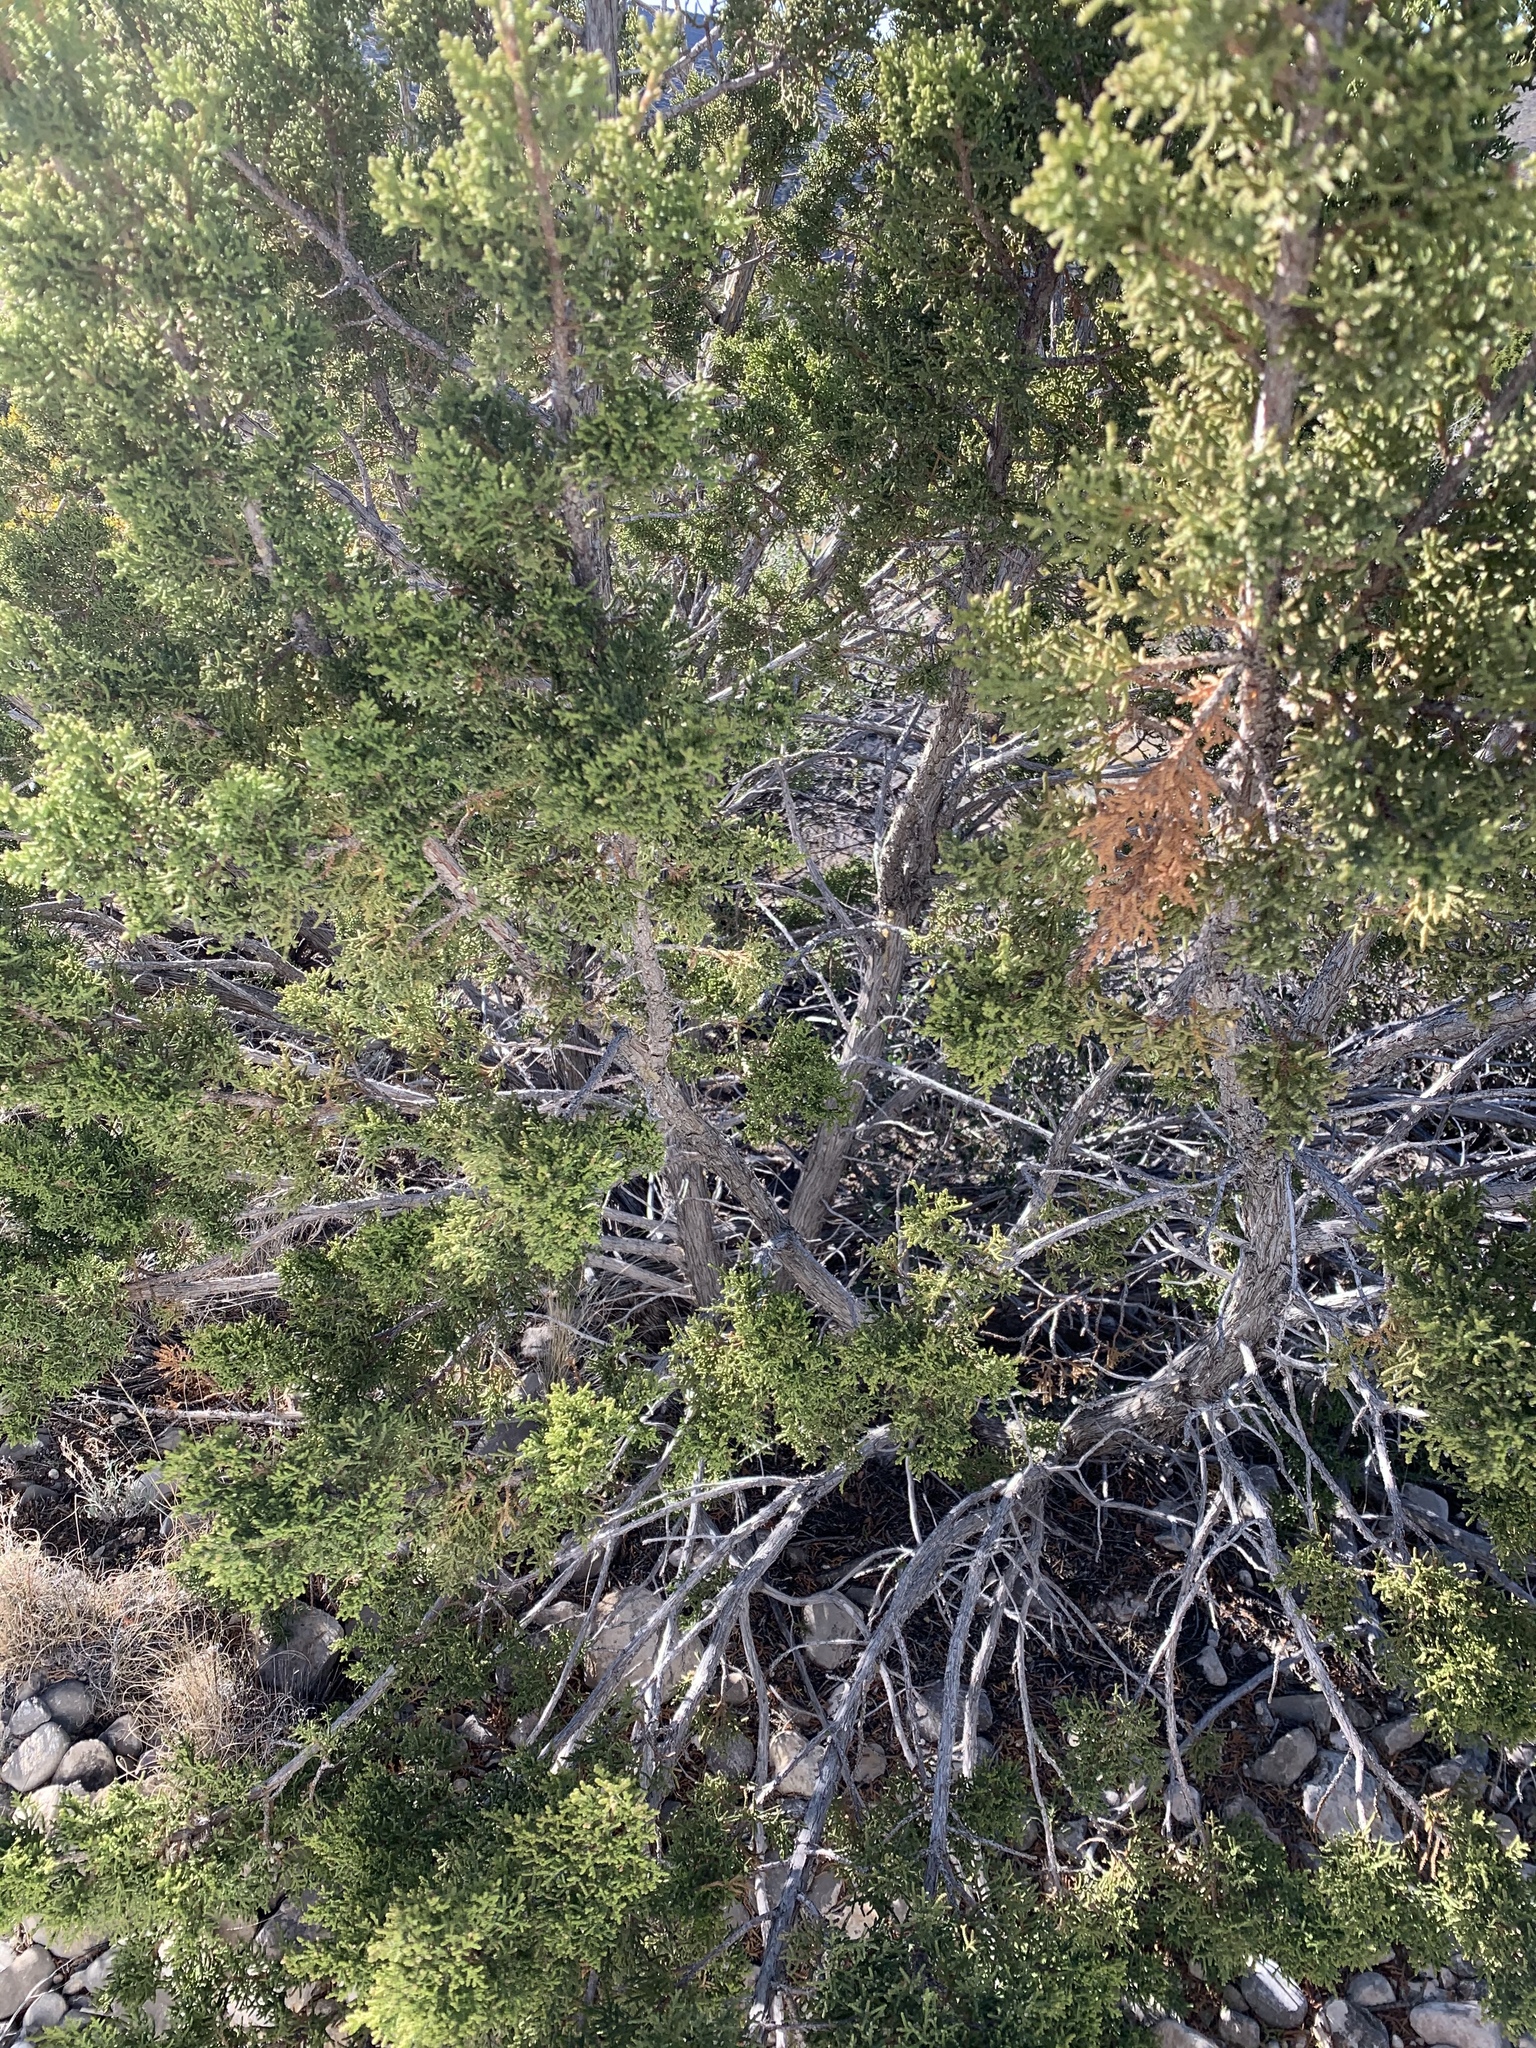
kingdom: Plantae
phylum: Tracheophyta
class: Pinopsida
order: Pinales
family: Cupressaceae
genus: Juniperus
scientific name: Juniperus monosperma
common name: One-seed juniper
